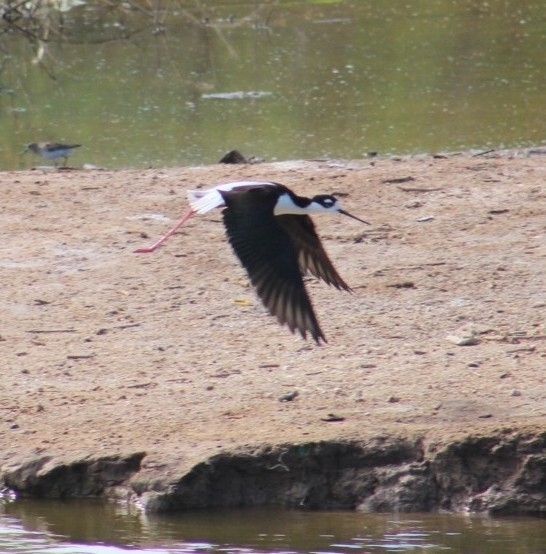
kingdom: Animalia
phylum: Chordata
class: Aves
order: Charadriiformes
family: Recurvirostridae
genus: Himantopus
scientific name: Himantopus mexicanus
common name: Black-necked stilt
